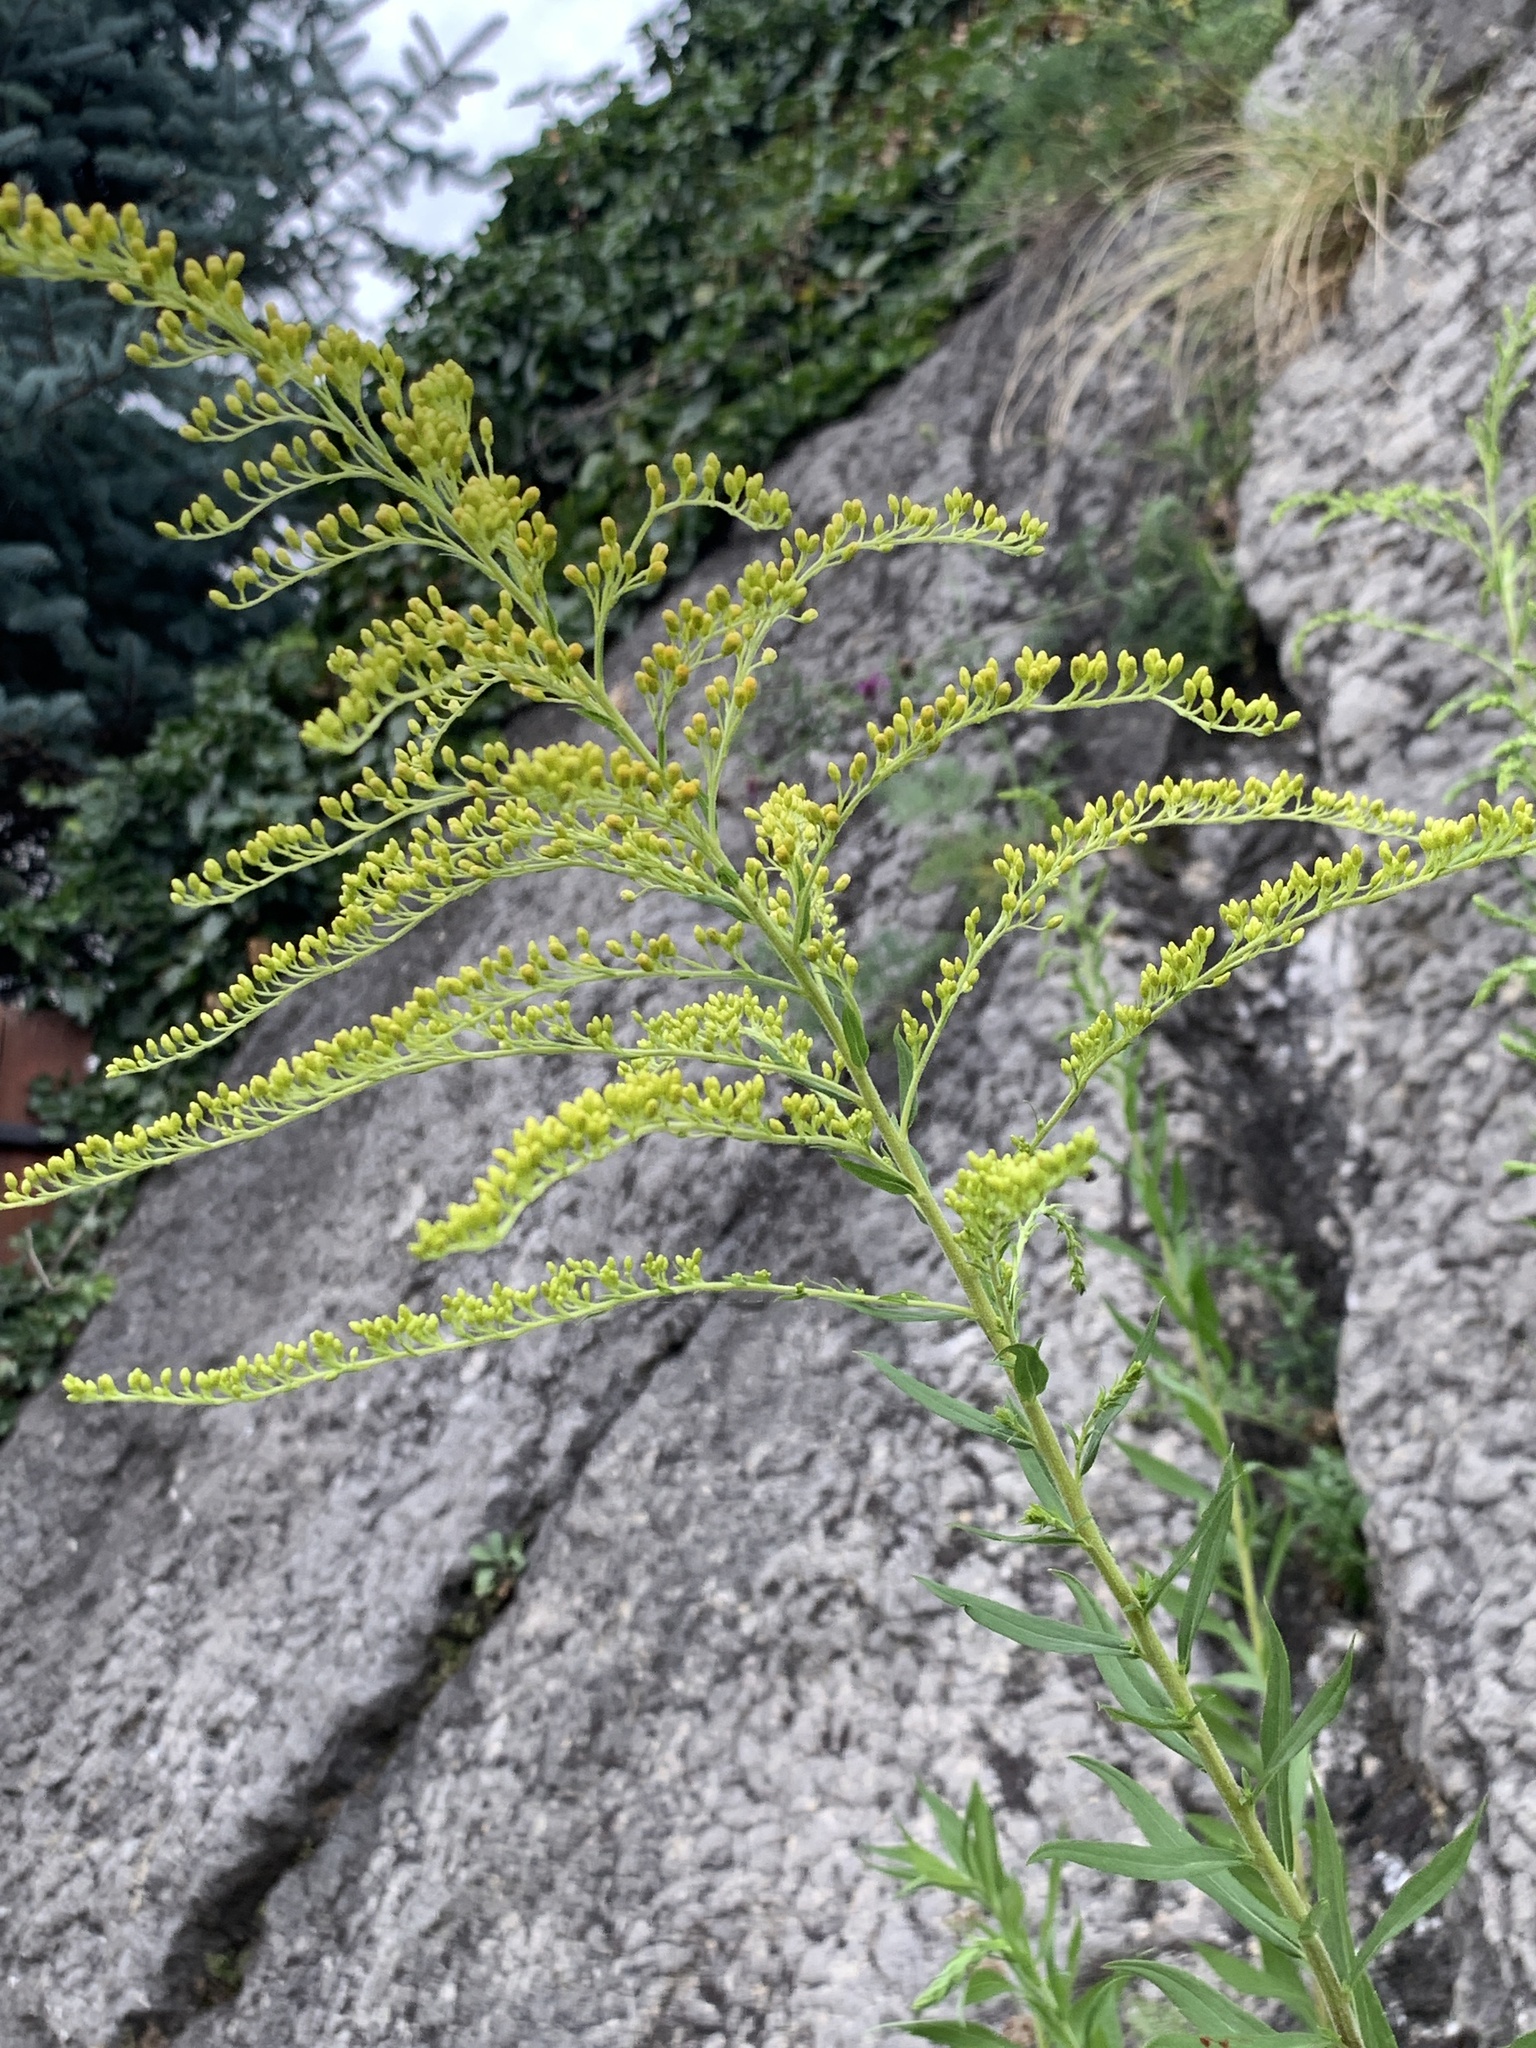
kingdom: Plantae
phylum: Tracheophyta
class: Magnoliopsida
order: Asterales
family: Asteraceae
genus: Solidago
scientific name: Solidago canadensis
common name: Canada goldenrod
